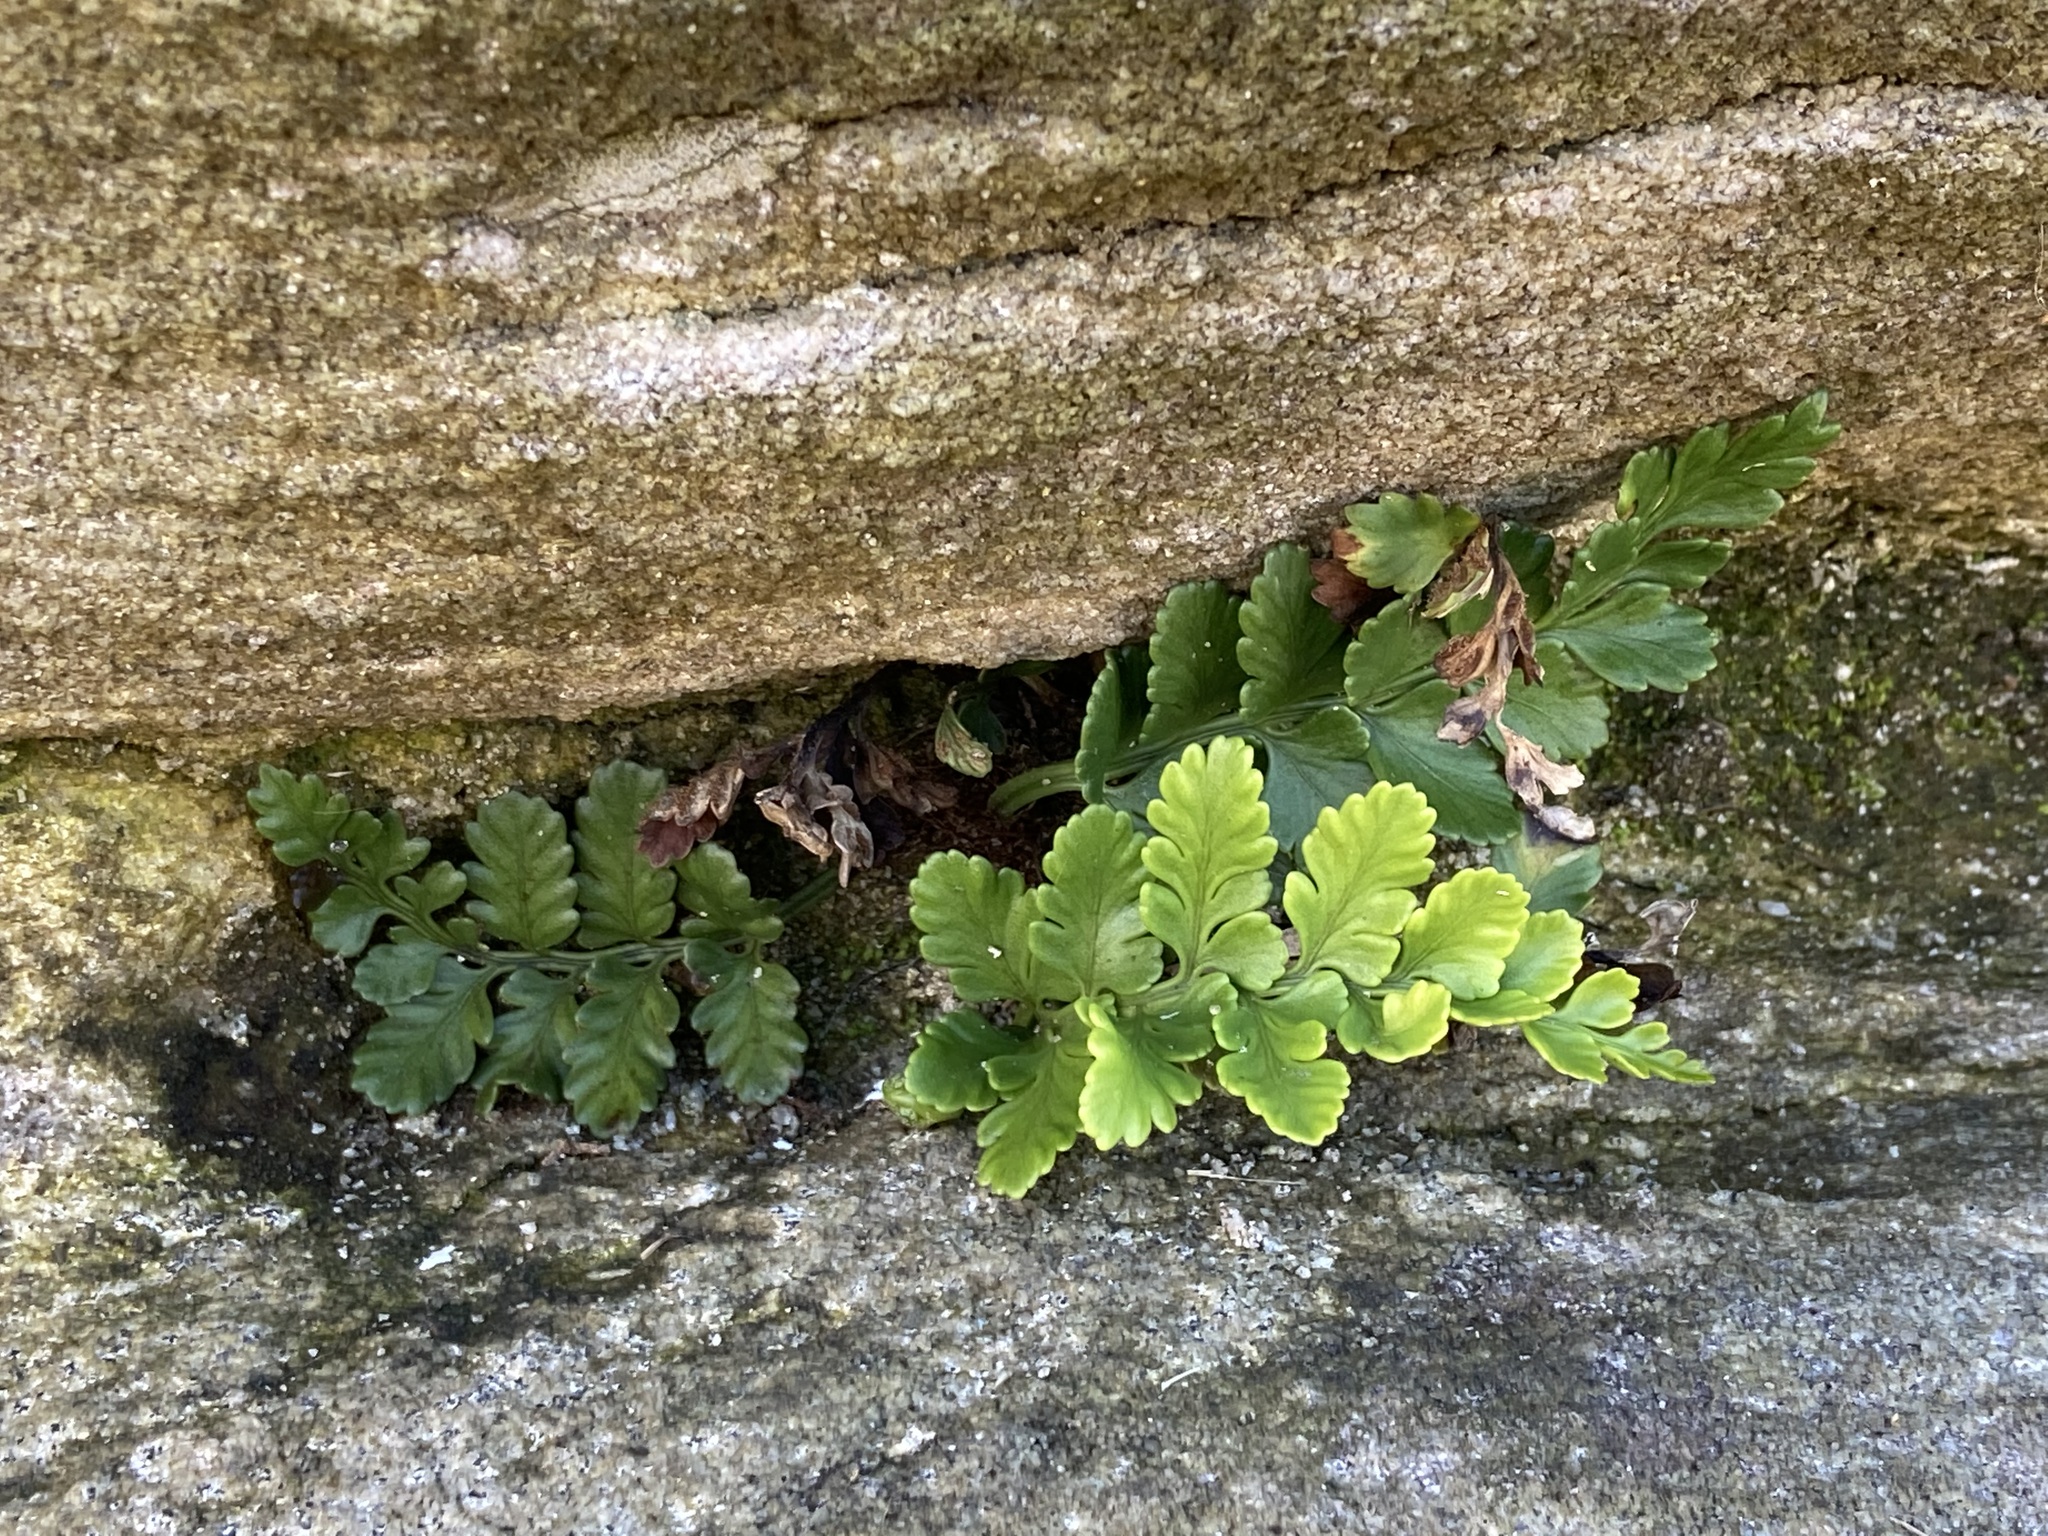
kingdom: Plantae
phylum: Tracheophyta
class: Polypodiopsida
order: Polypodiales
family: Aspleniaceae
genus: Asplenium
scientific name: Asplenium difforme
